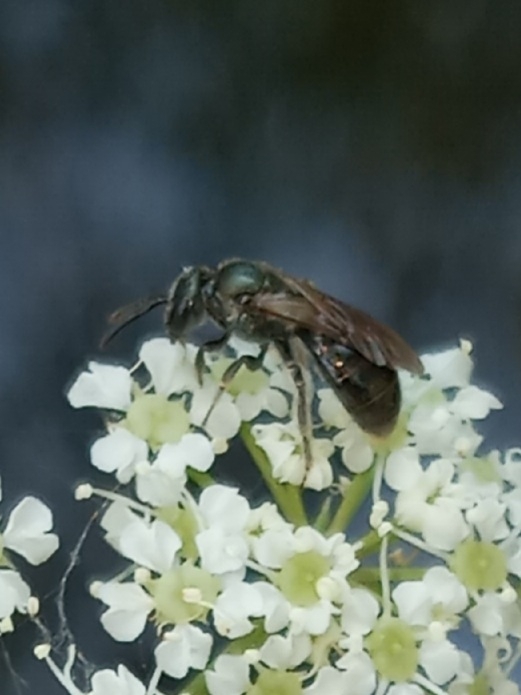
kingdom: Animalia
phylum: Arthropoda
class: Insecta
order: Hymenoptera
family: Halictidae
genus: Lasioglossum
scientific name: Lasioglossum nigroviride
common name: Black-and-green dialictus sweat bee
